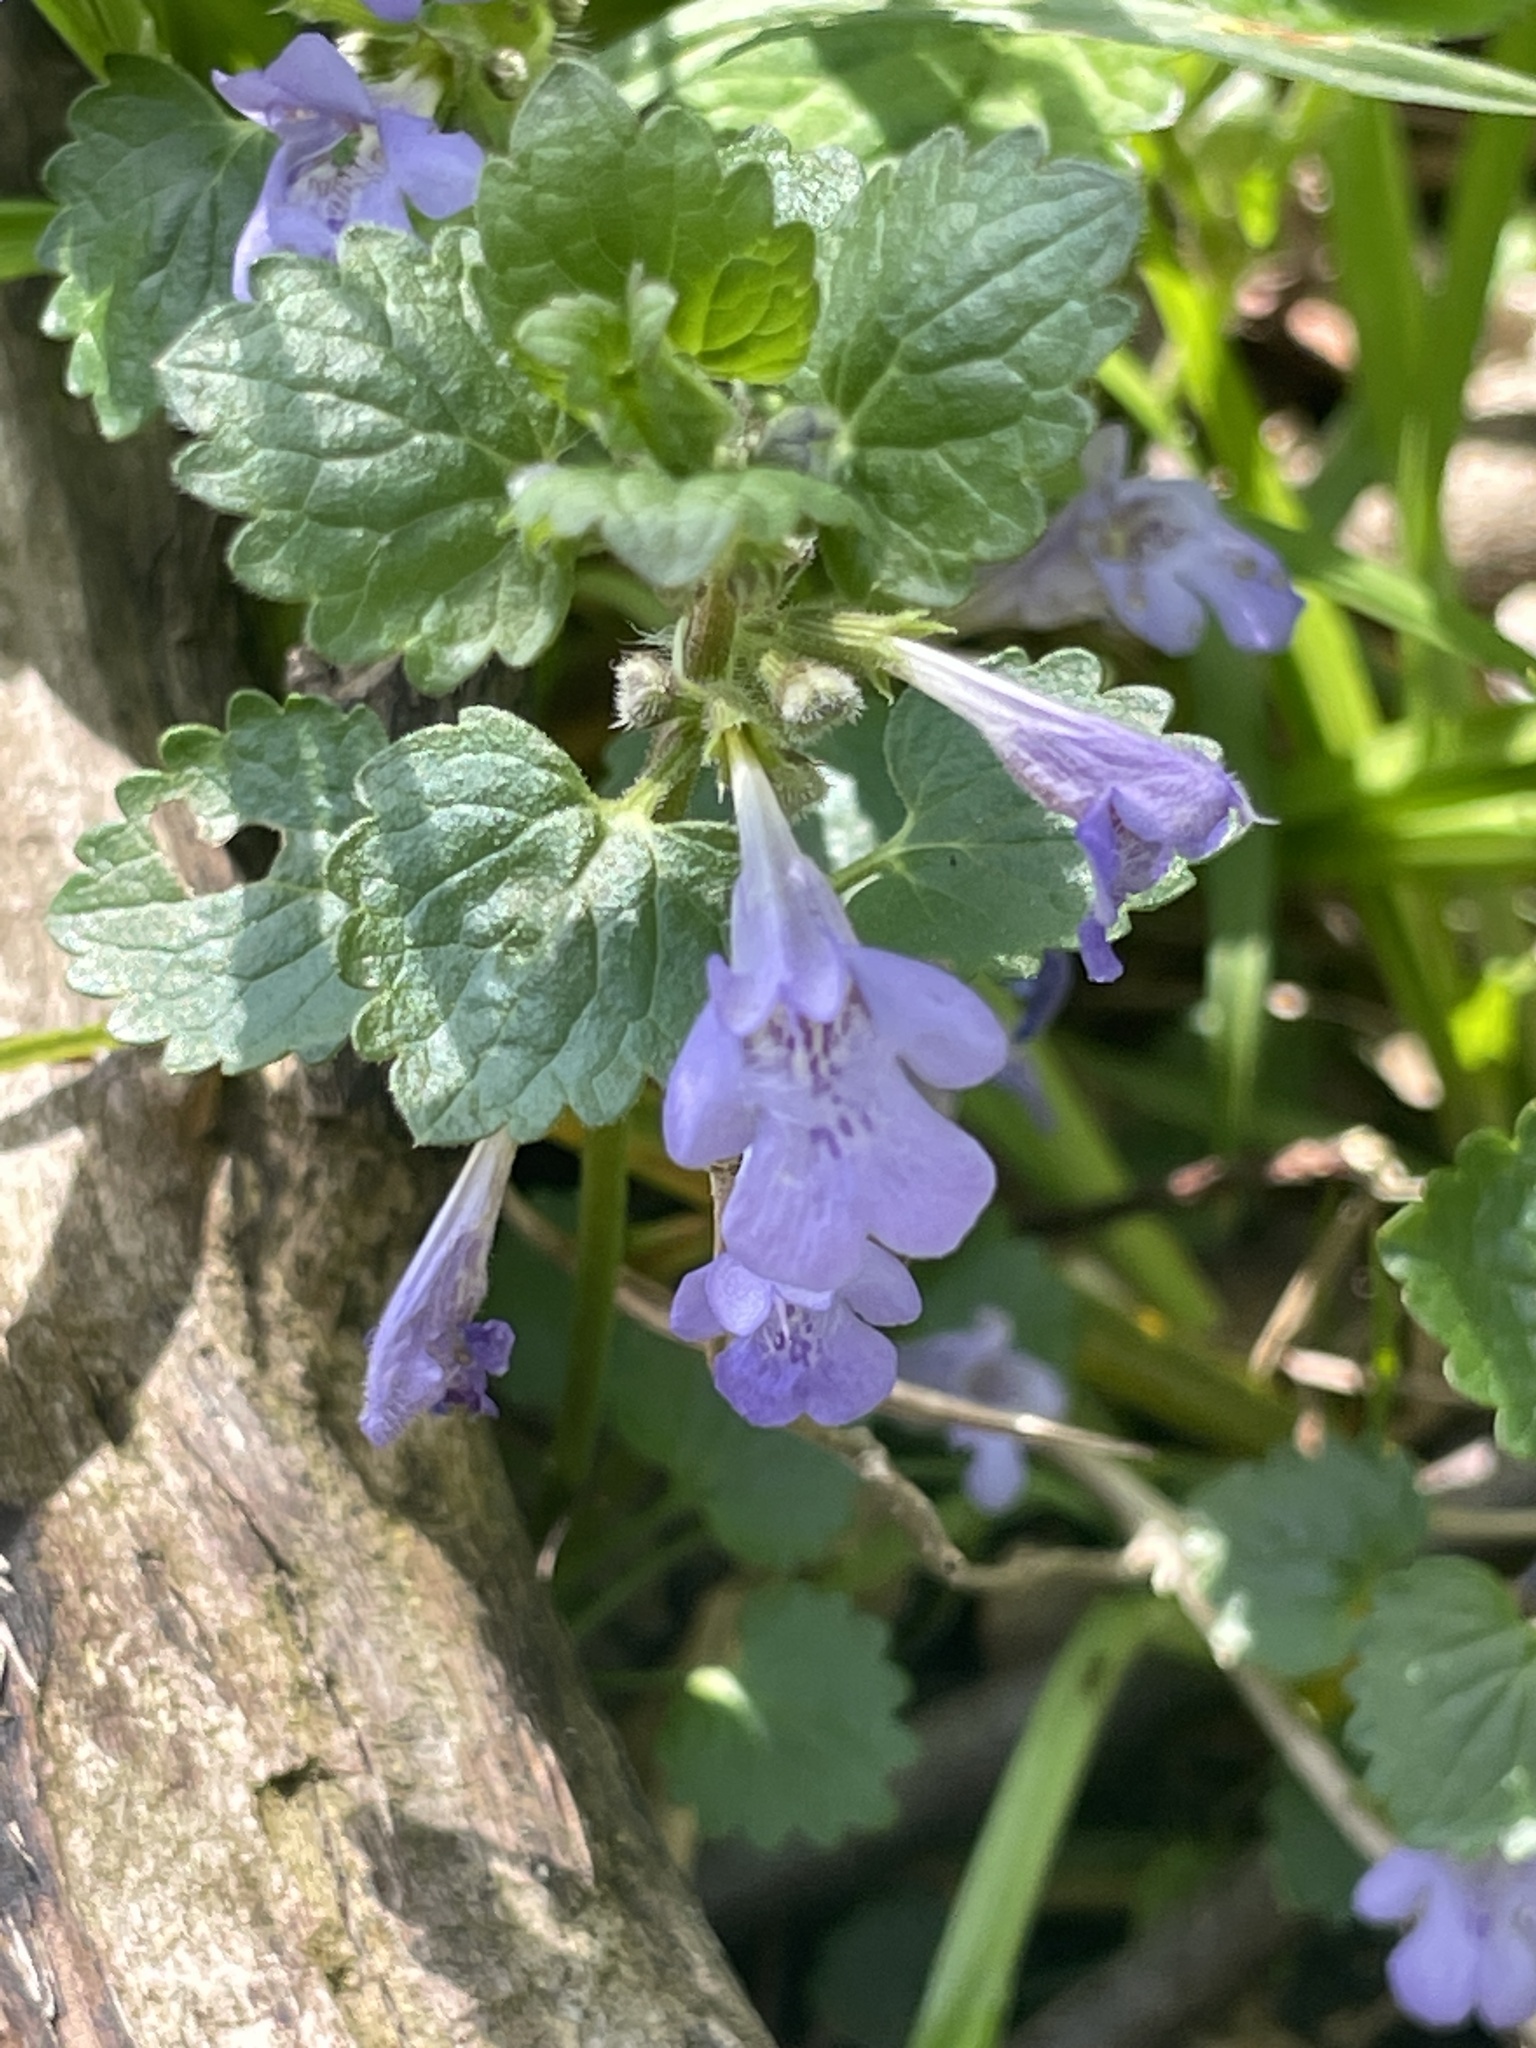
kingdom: Plantae
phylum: Tracheophyta
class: Magnoliopsida
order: Lamiales
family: Lamiaceae
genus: Glechoma
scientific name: Glechoma hederacea
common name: Ground ivy
